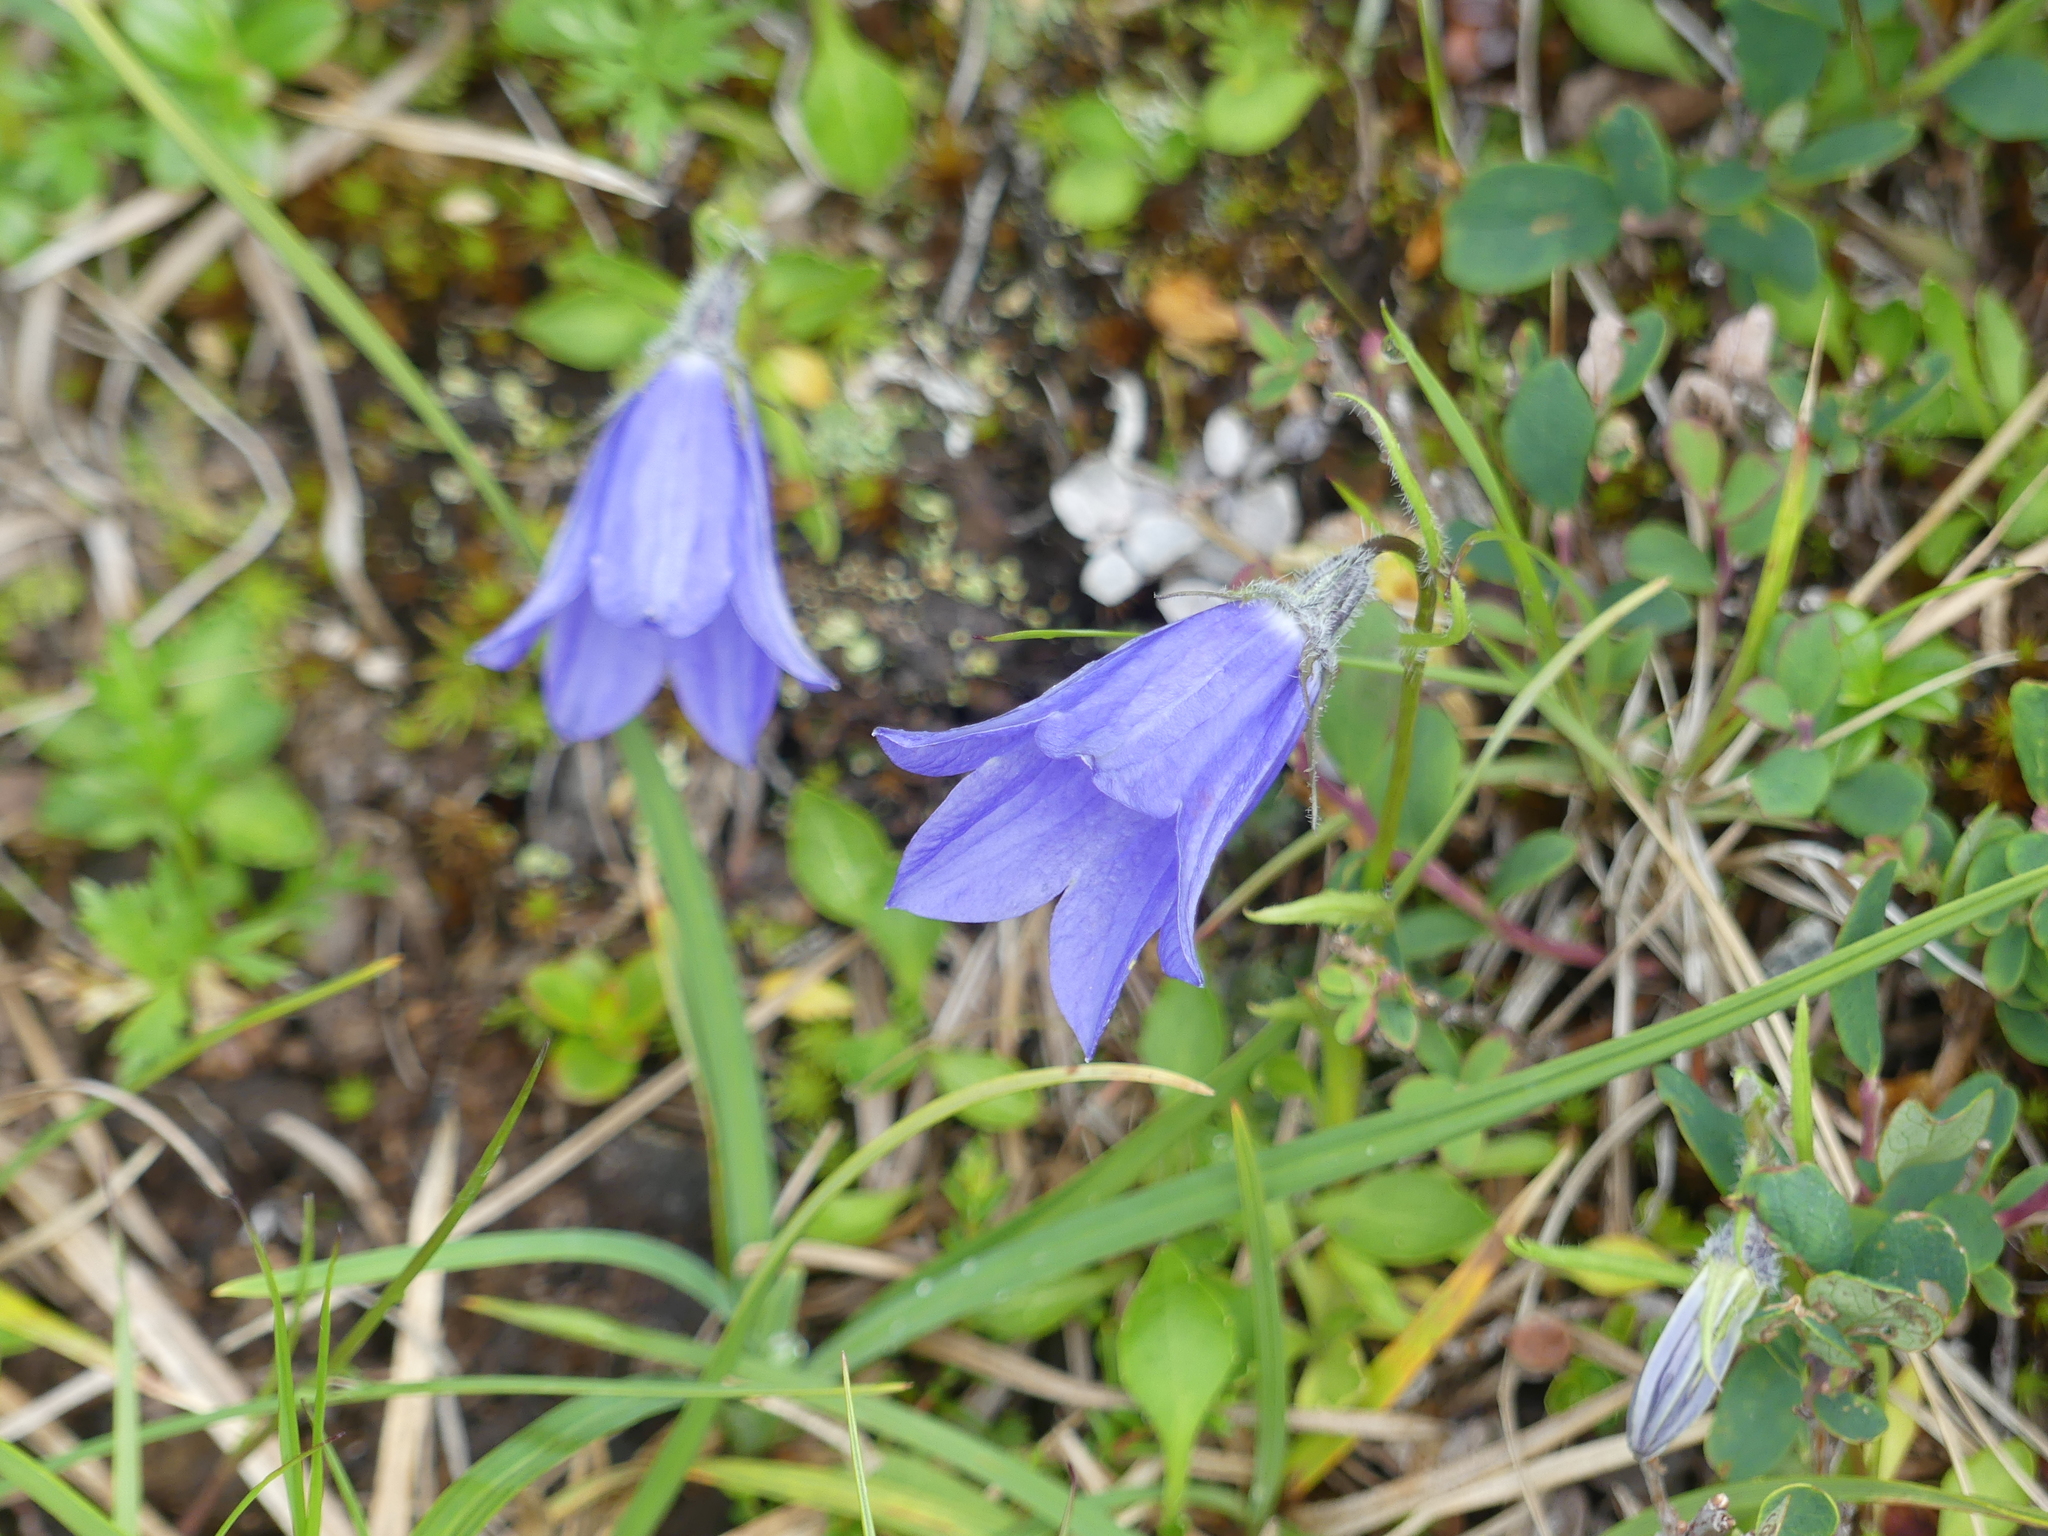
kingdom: Plantae
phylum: Tracheophyta
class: Magnoliopsida
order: Asterales
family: Campanulaceae
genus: Campanula
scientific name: Campanula lasiocarpa
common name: Mountain harebell
